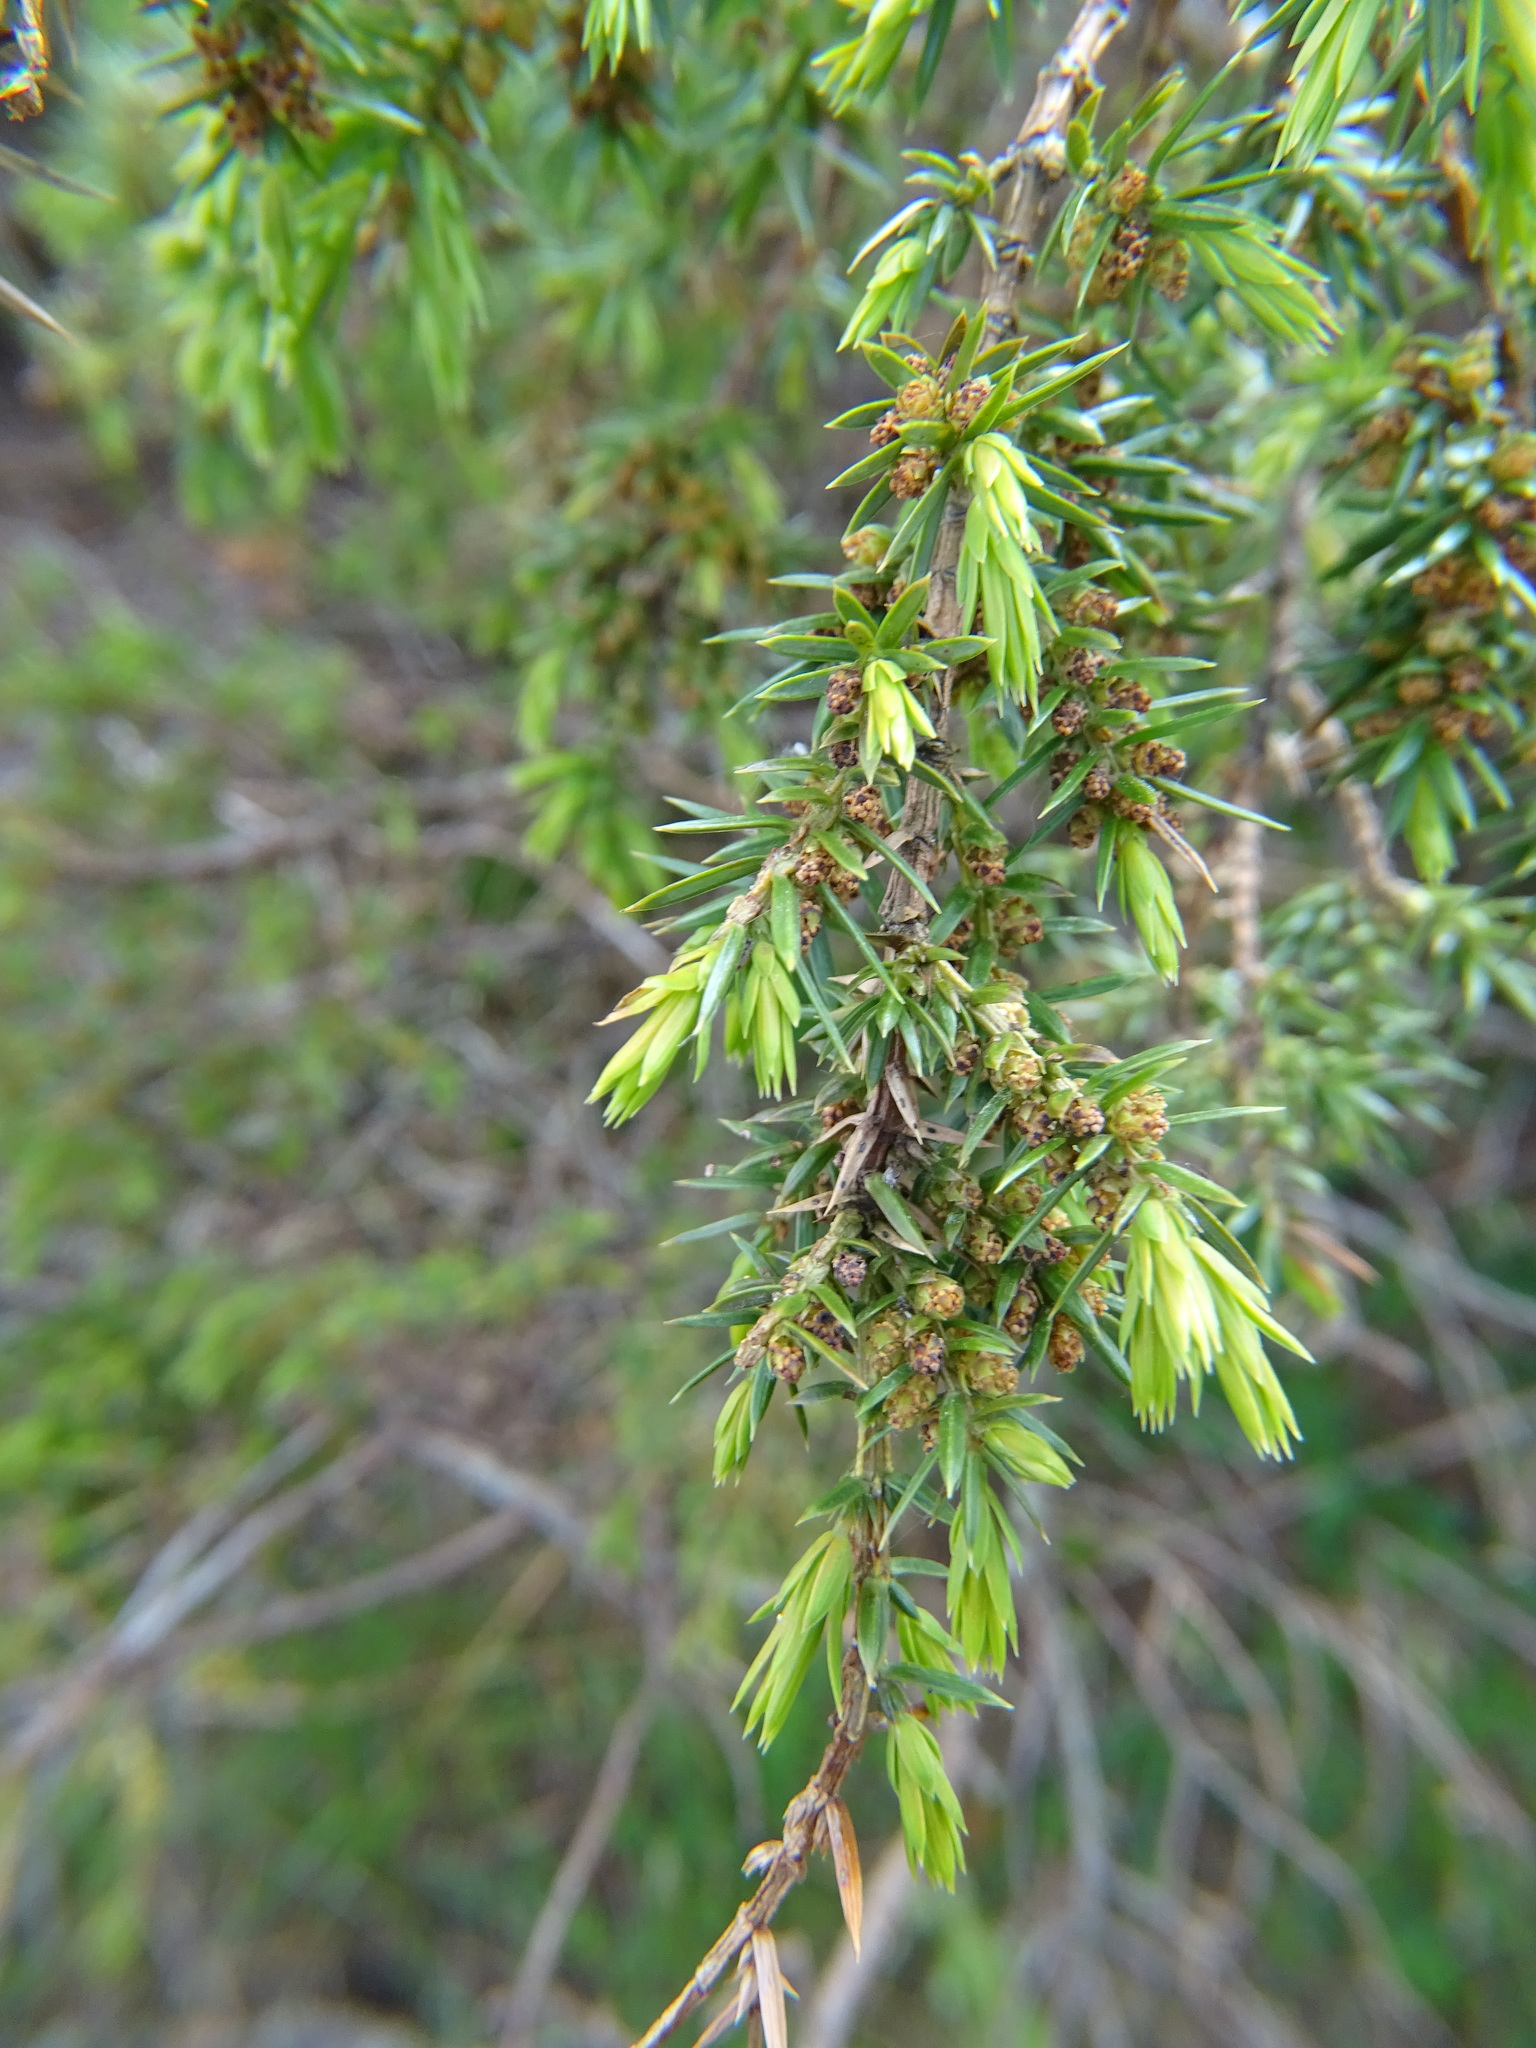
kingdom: Plantae
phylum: Tracheophyta
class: Pinopsida
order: Pinales
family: Cupressaceae
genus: Juniperus
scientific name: Juniperus communis
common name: Common juniper
